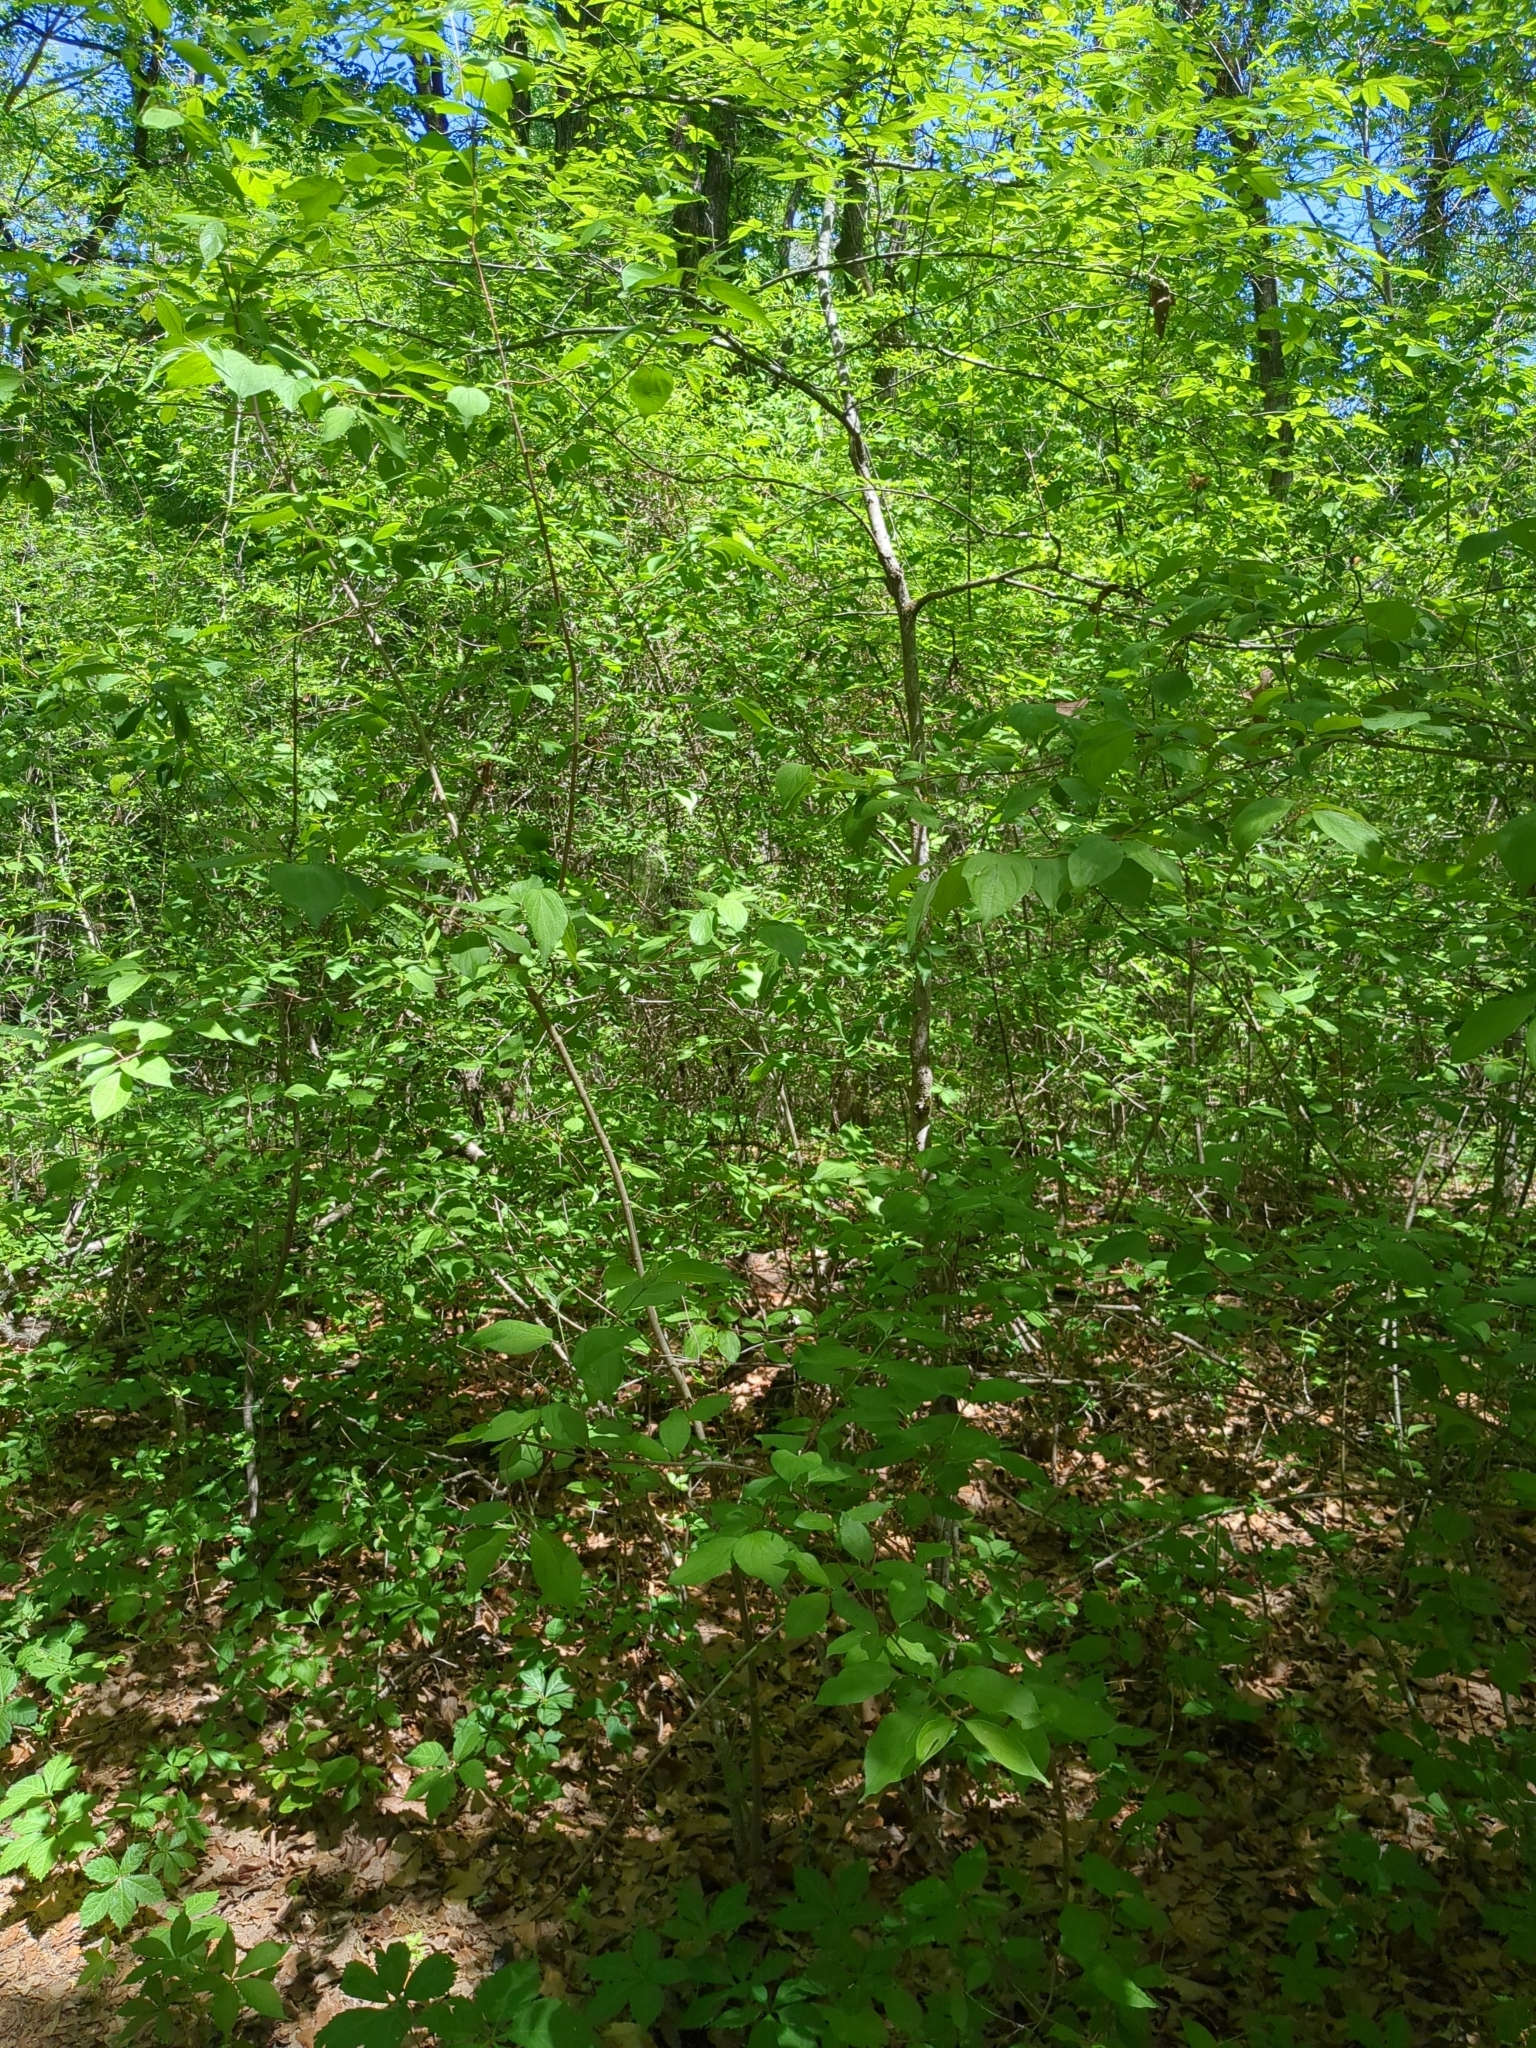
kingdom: Plantae
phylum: Tracheophyta
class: Magnoliopsida
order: Cornales
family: Cornaceae
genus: Cornus
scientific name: Cornus drummondii
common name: Rough-leaf dogwood
